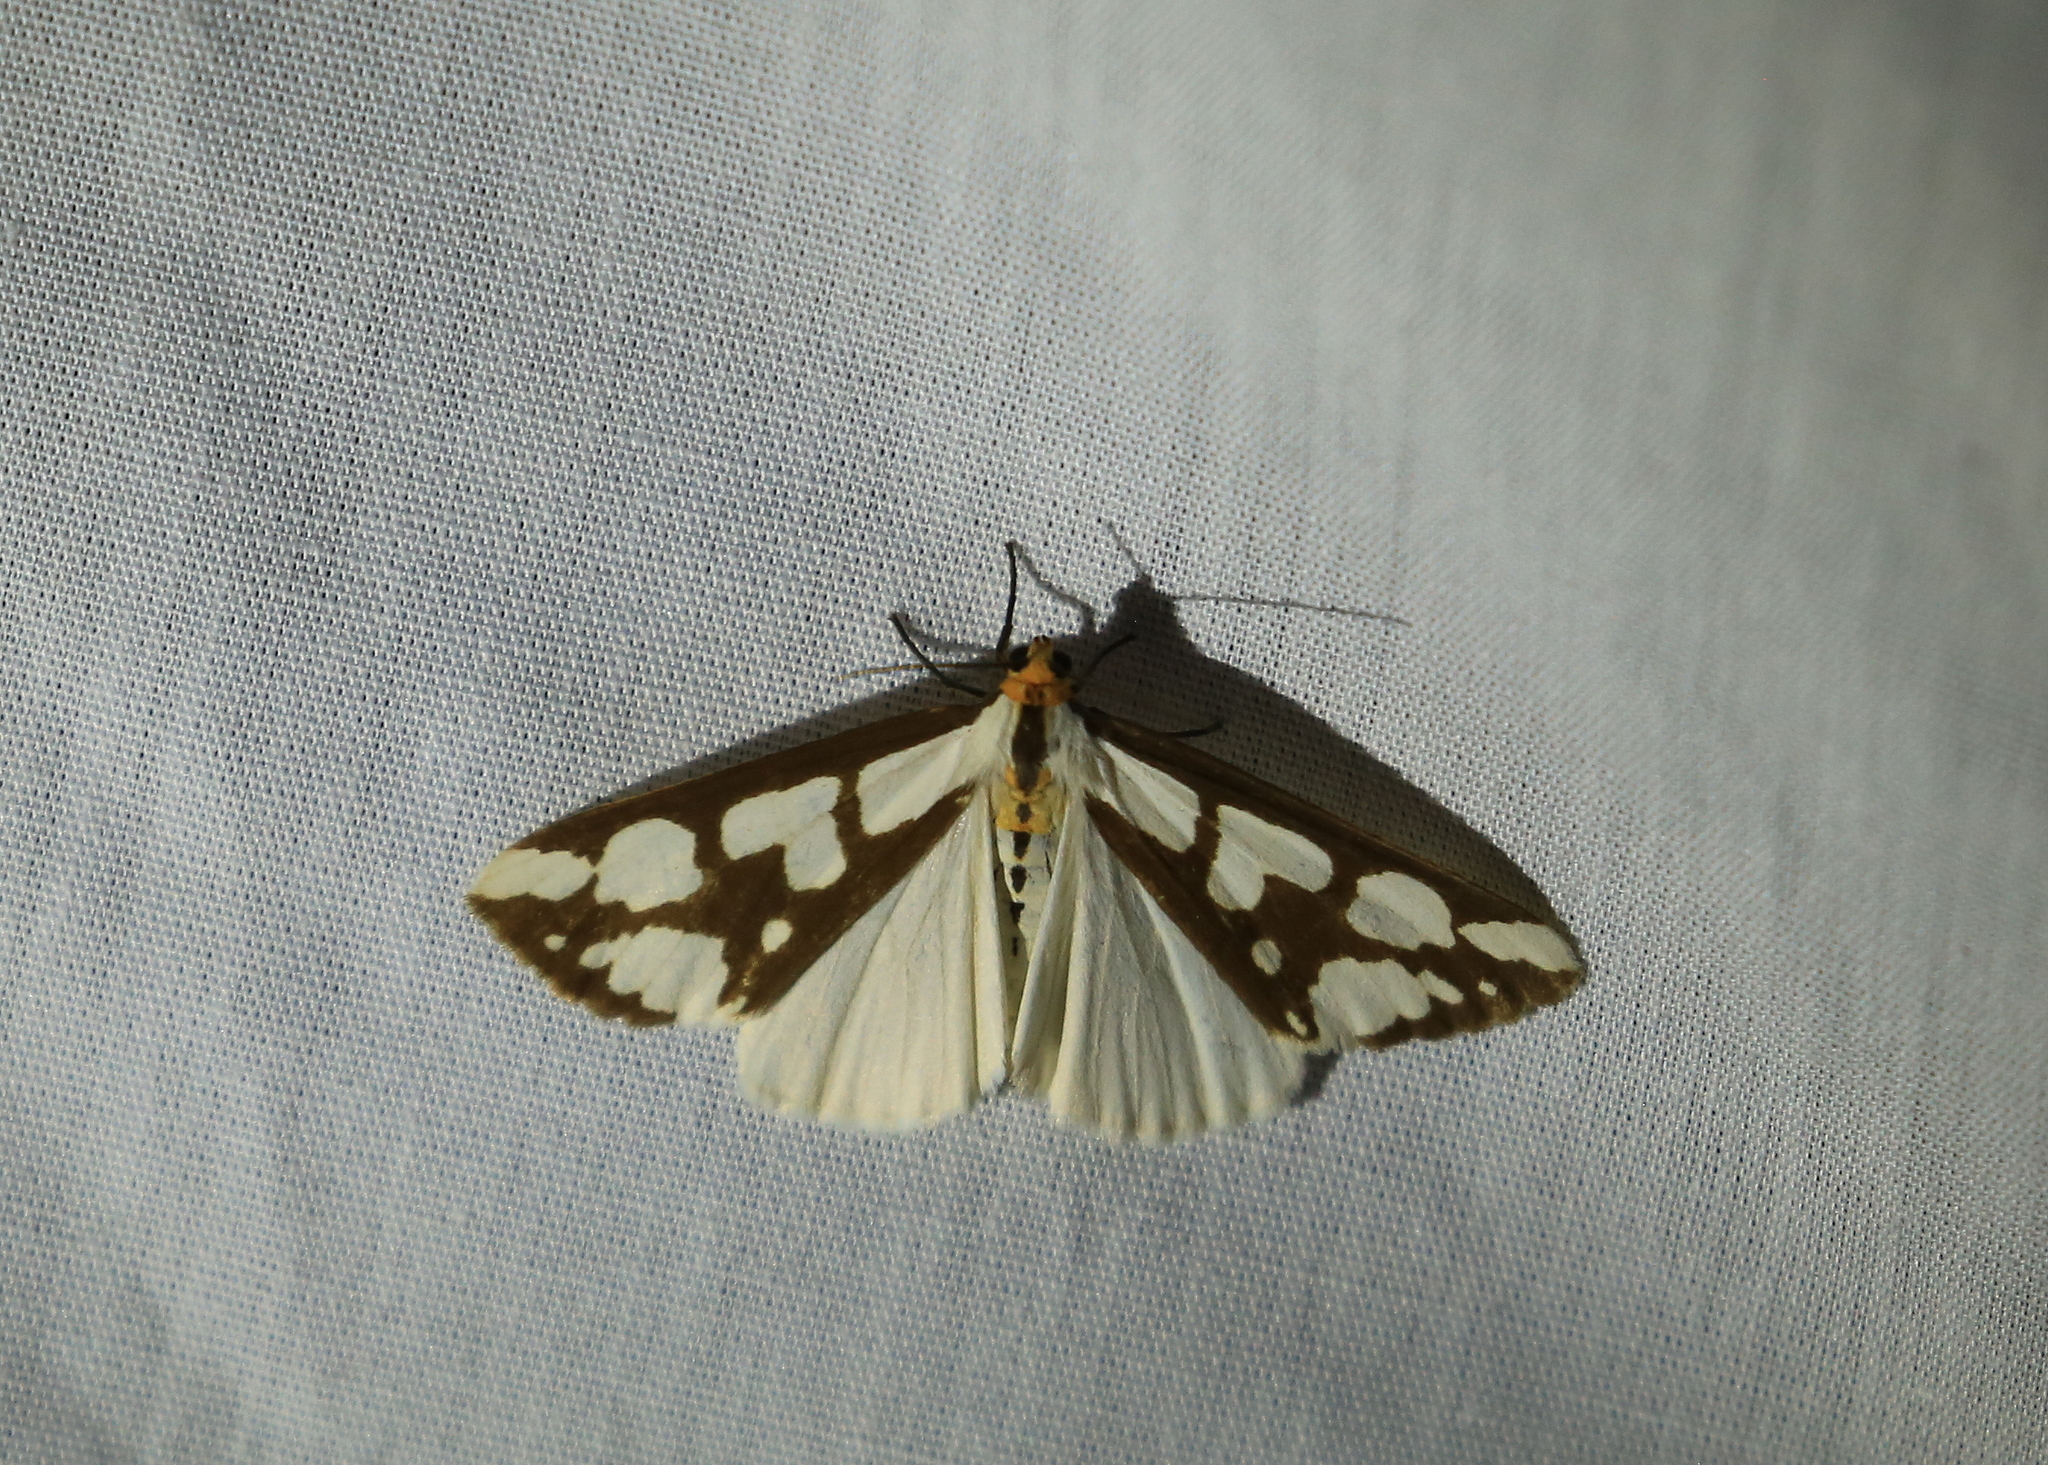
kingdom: Animalia
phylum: Arthropoda
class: Insecta
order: Lepidoptera
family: Erebidae
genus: Haploa
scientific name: Haploa confusa
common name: Confused haploa moth
